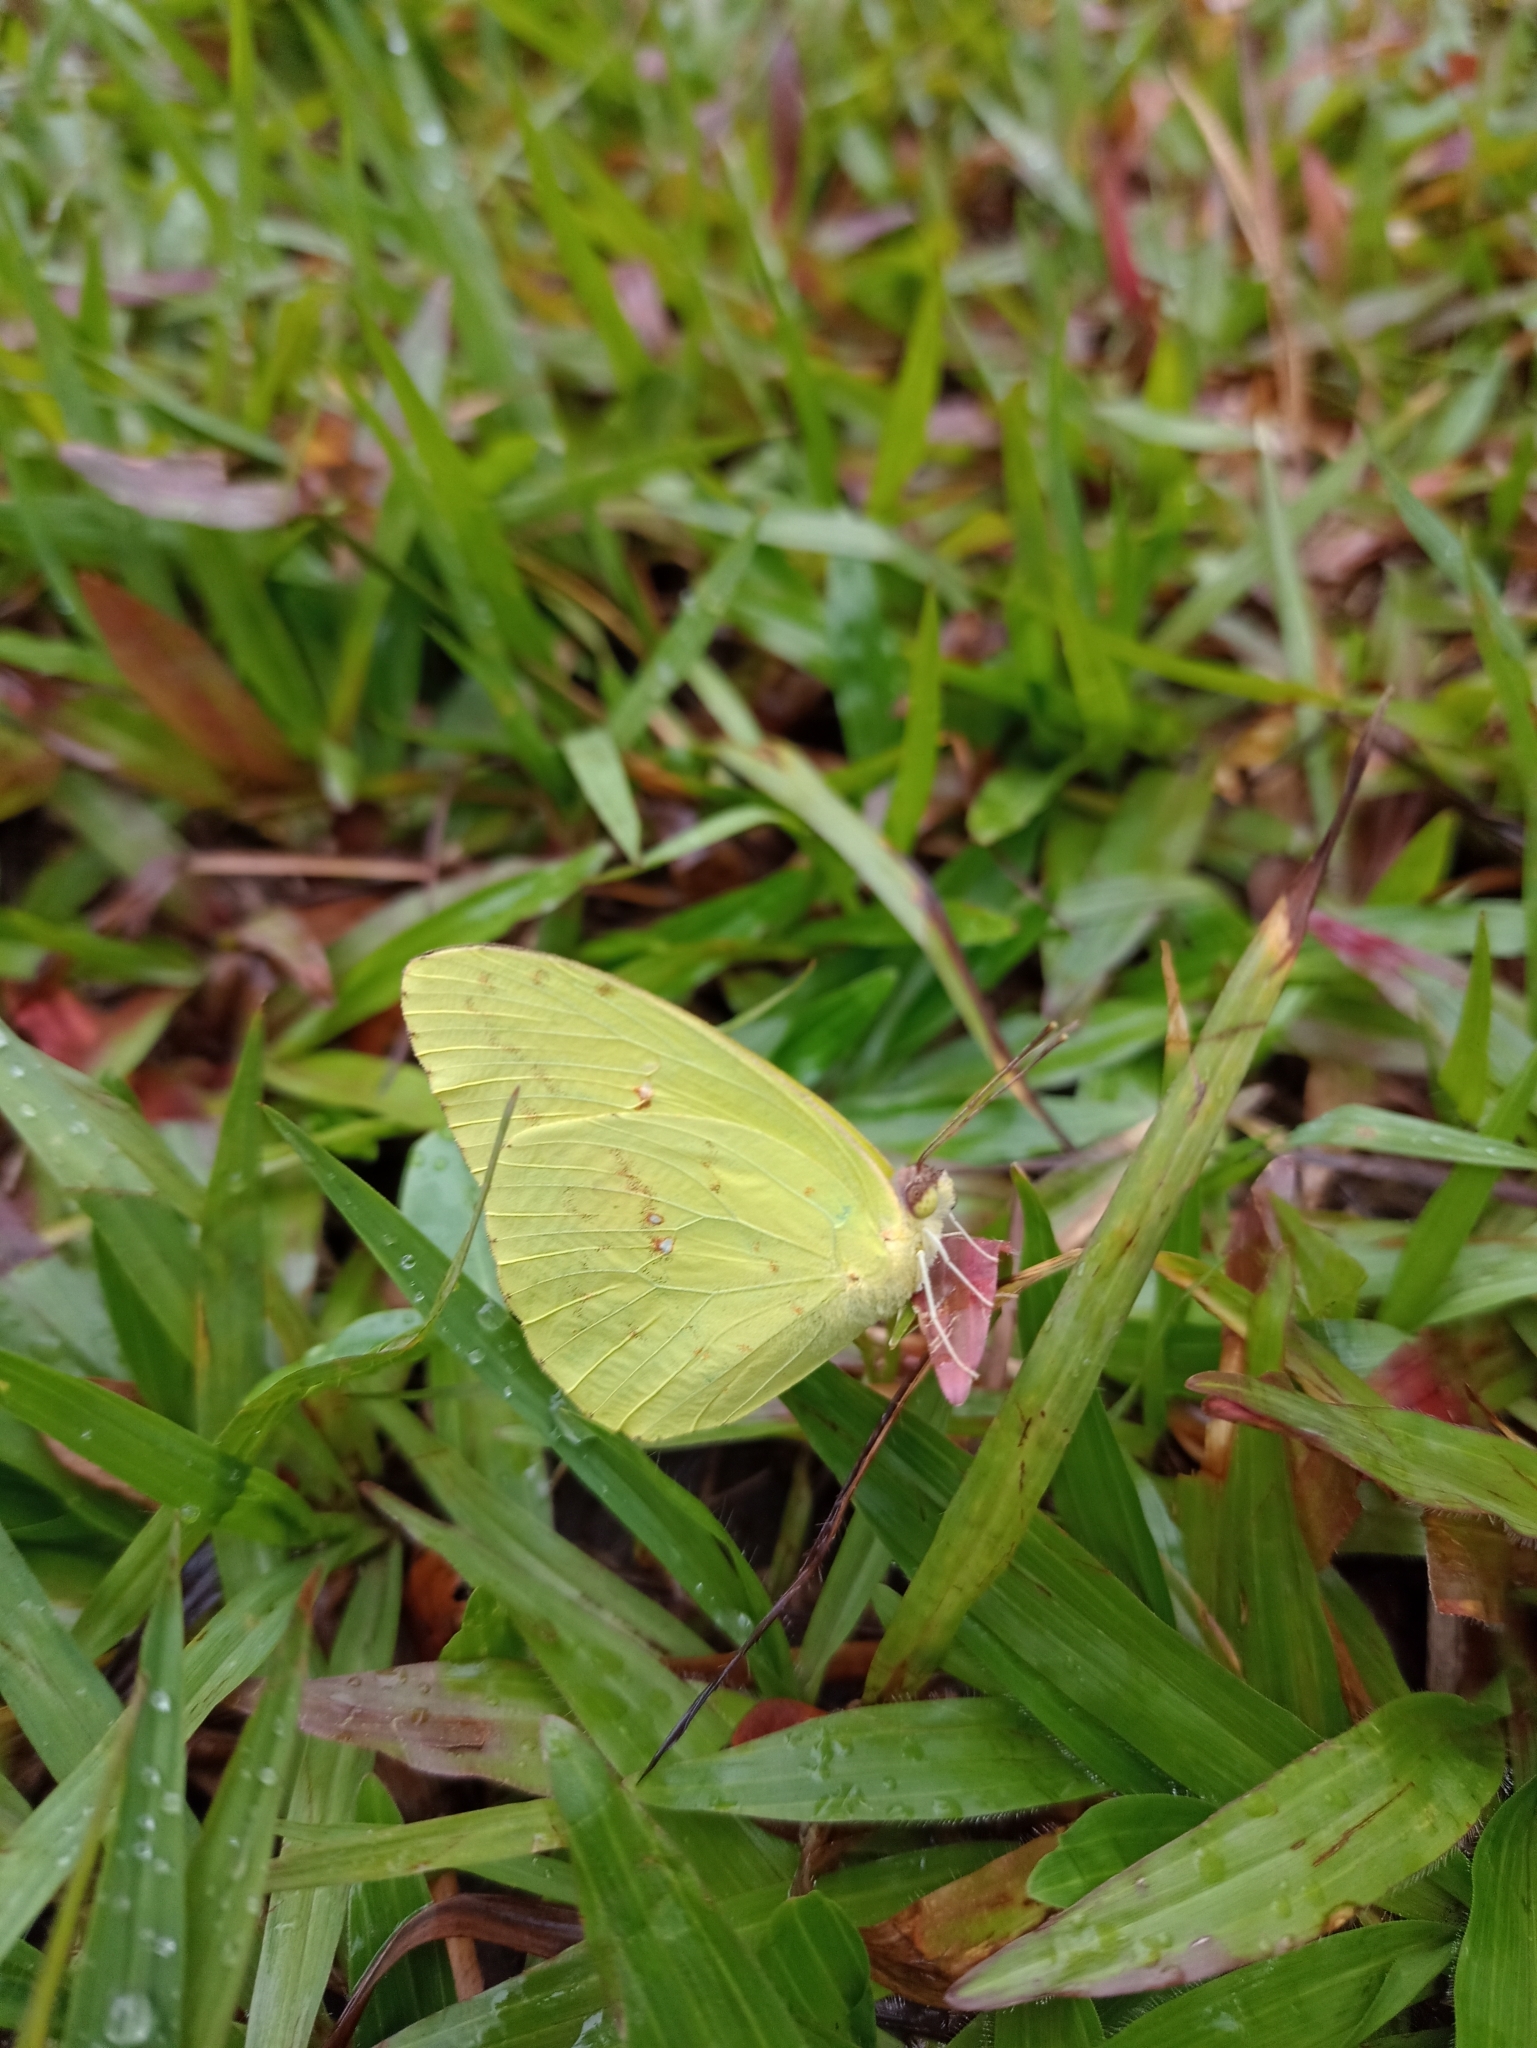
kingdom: Animalia
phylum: Arthropoda
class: Insecta
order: Lepidoptera
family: Pieridae
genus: Phoebis
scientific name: Phoebis sennae
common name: Cloudless sulphur
